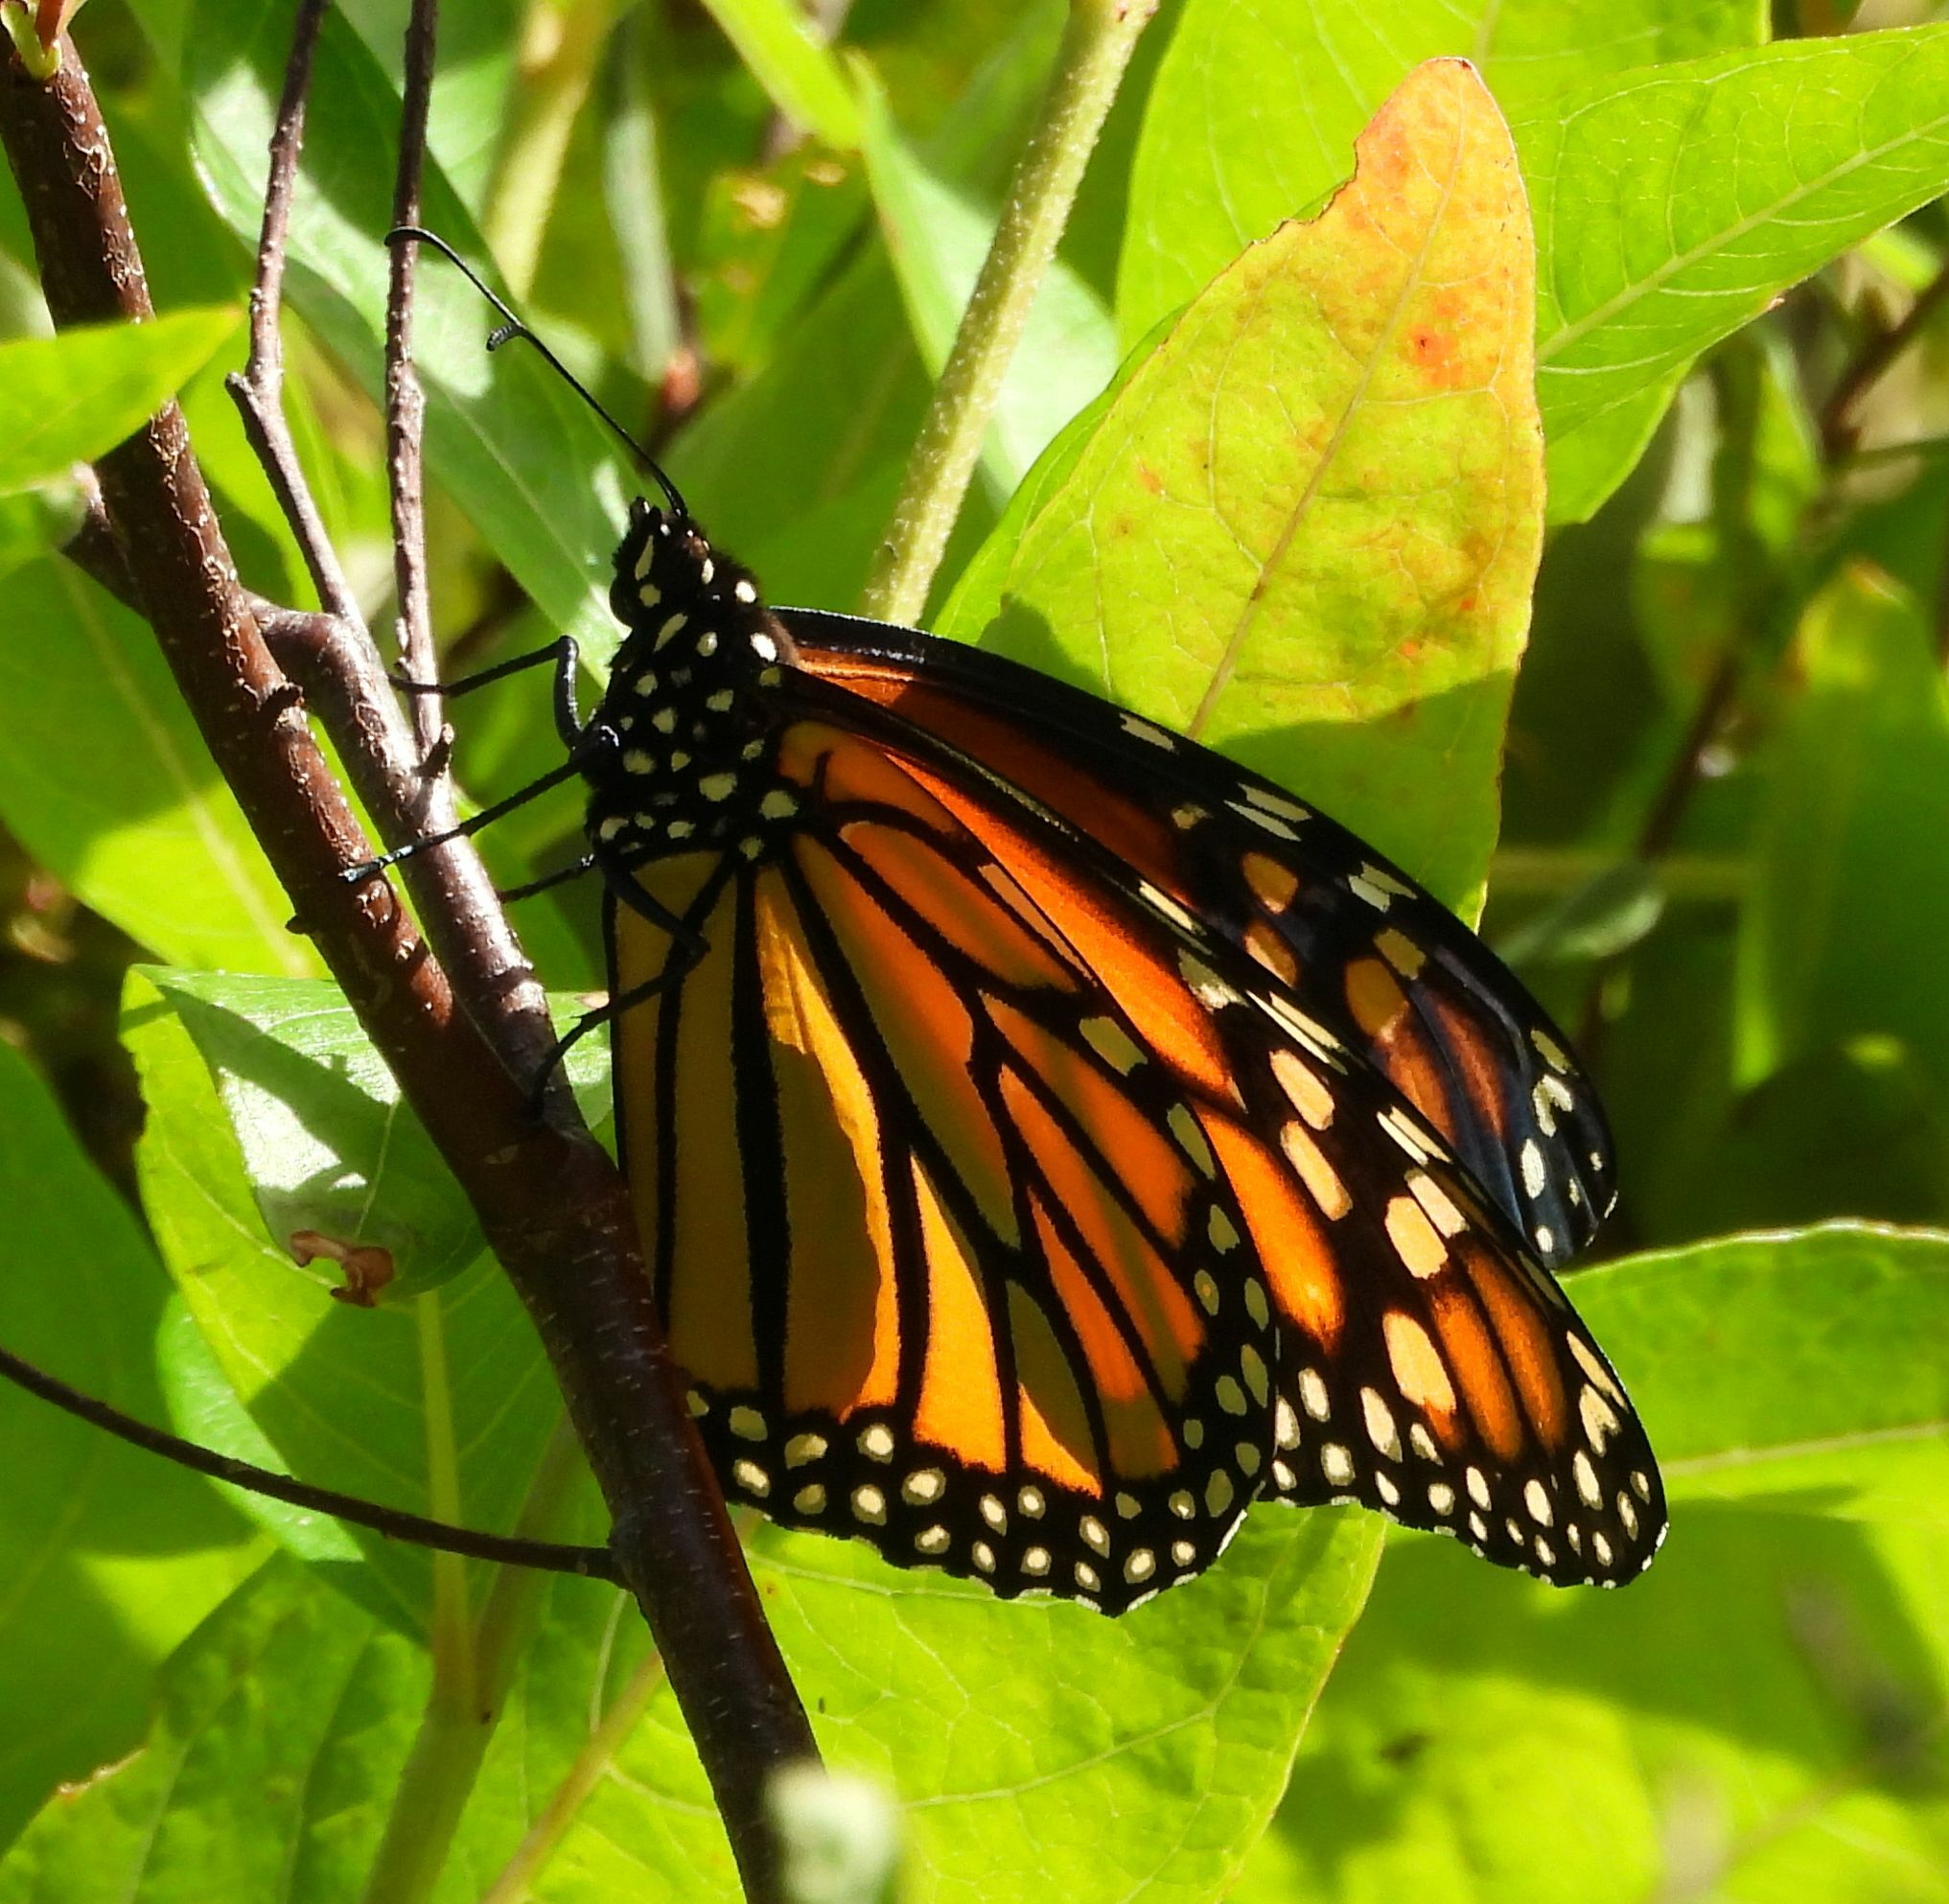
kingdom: Animalia
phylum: Arthropoda
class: Insecta
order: Lepidoptera
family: Nymphalidae
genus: Danaus
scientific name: Danaus plexippus
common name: Monarch
